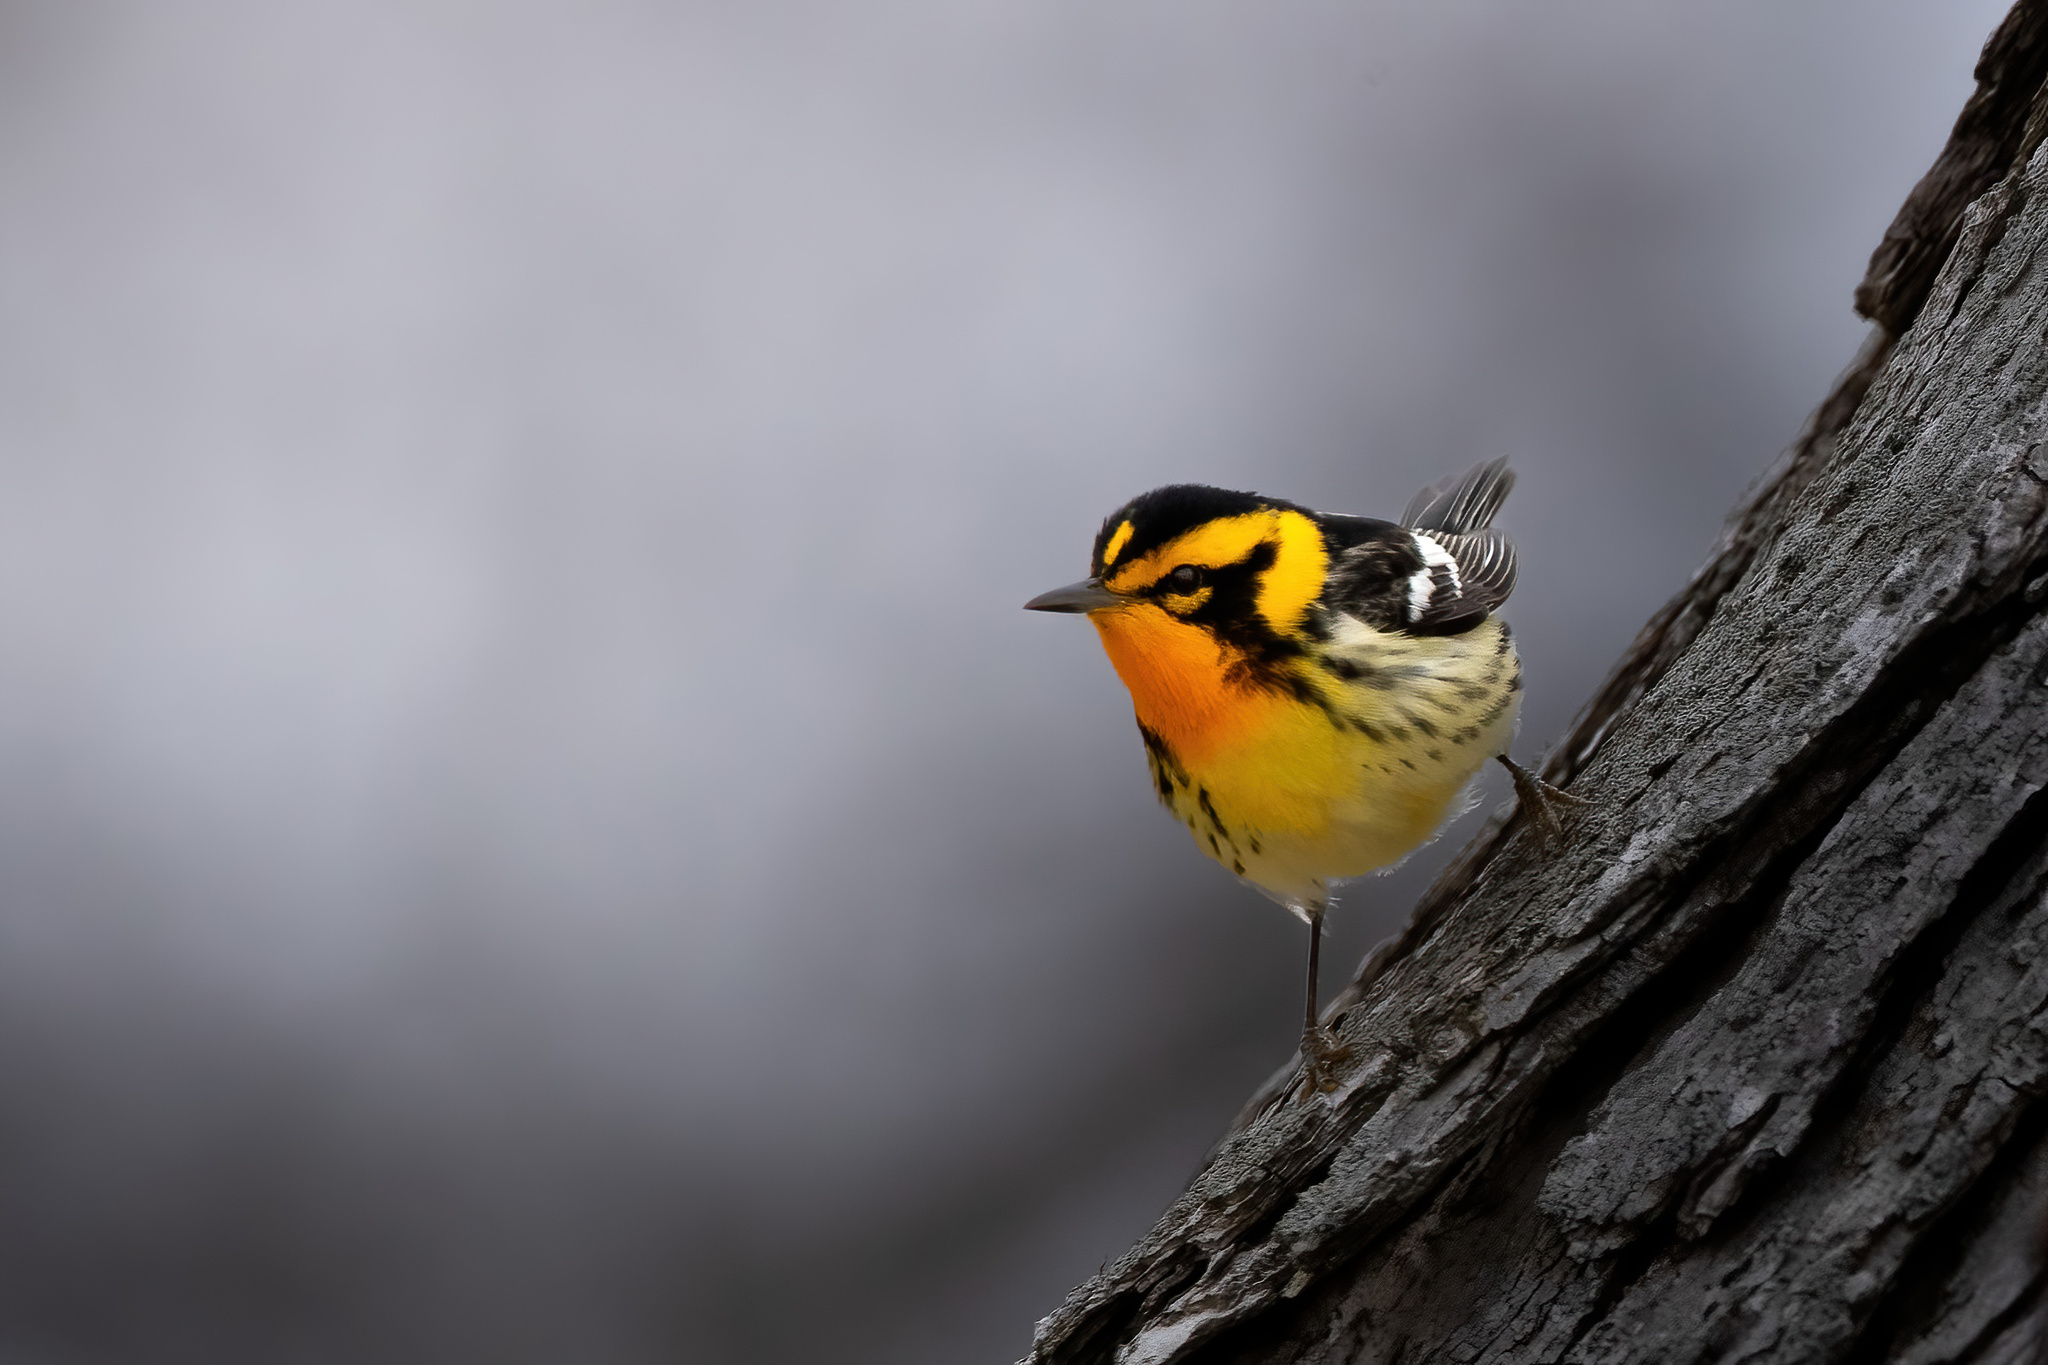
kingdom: Animalia
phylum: Chordata
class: Aves
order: Passeriformes
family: Parulidae
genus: Setophaga
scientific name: Setophaga fusca
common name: Blackburnian warbler
